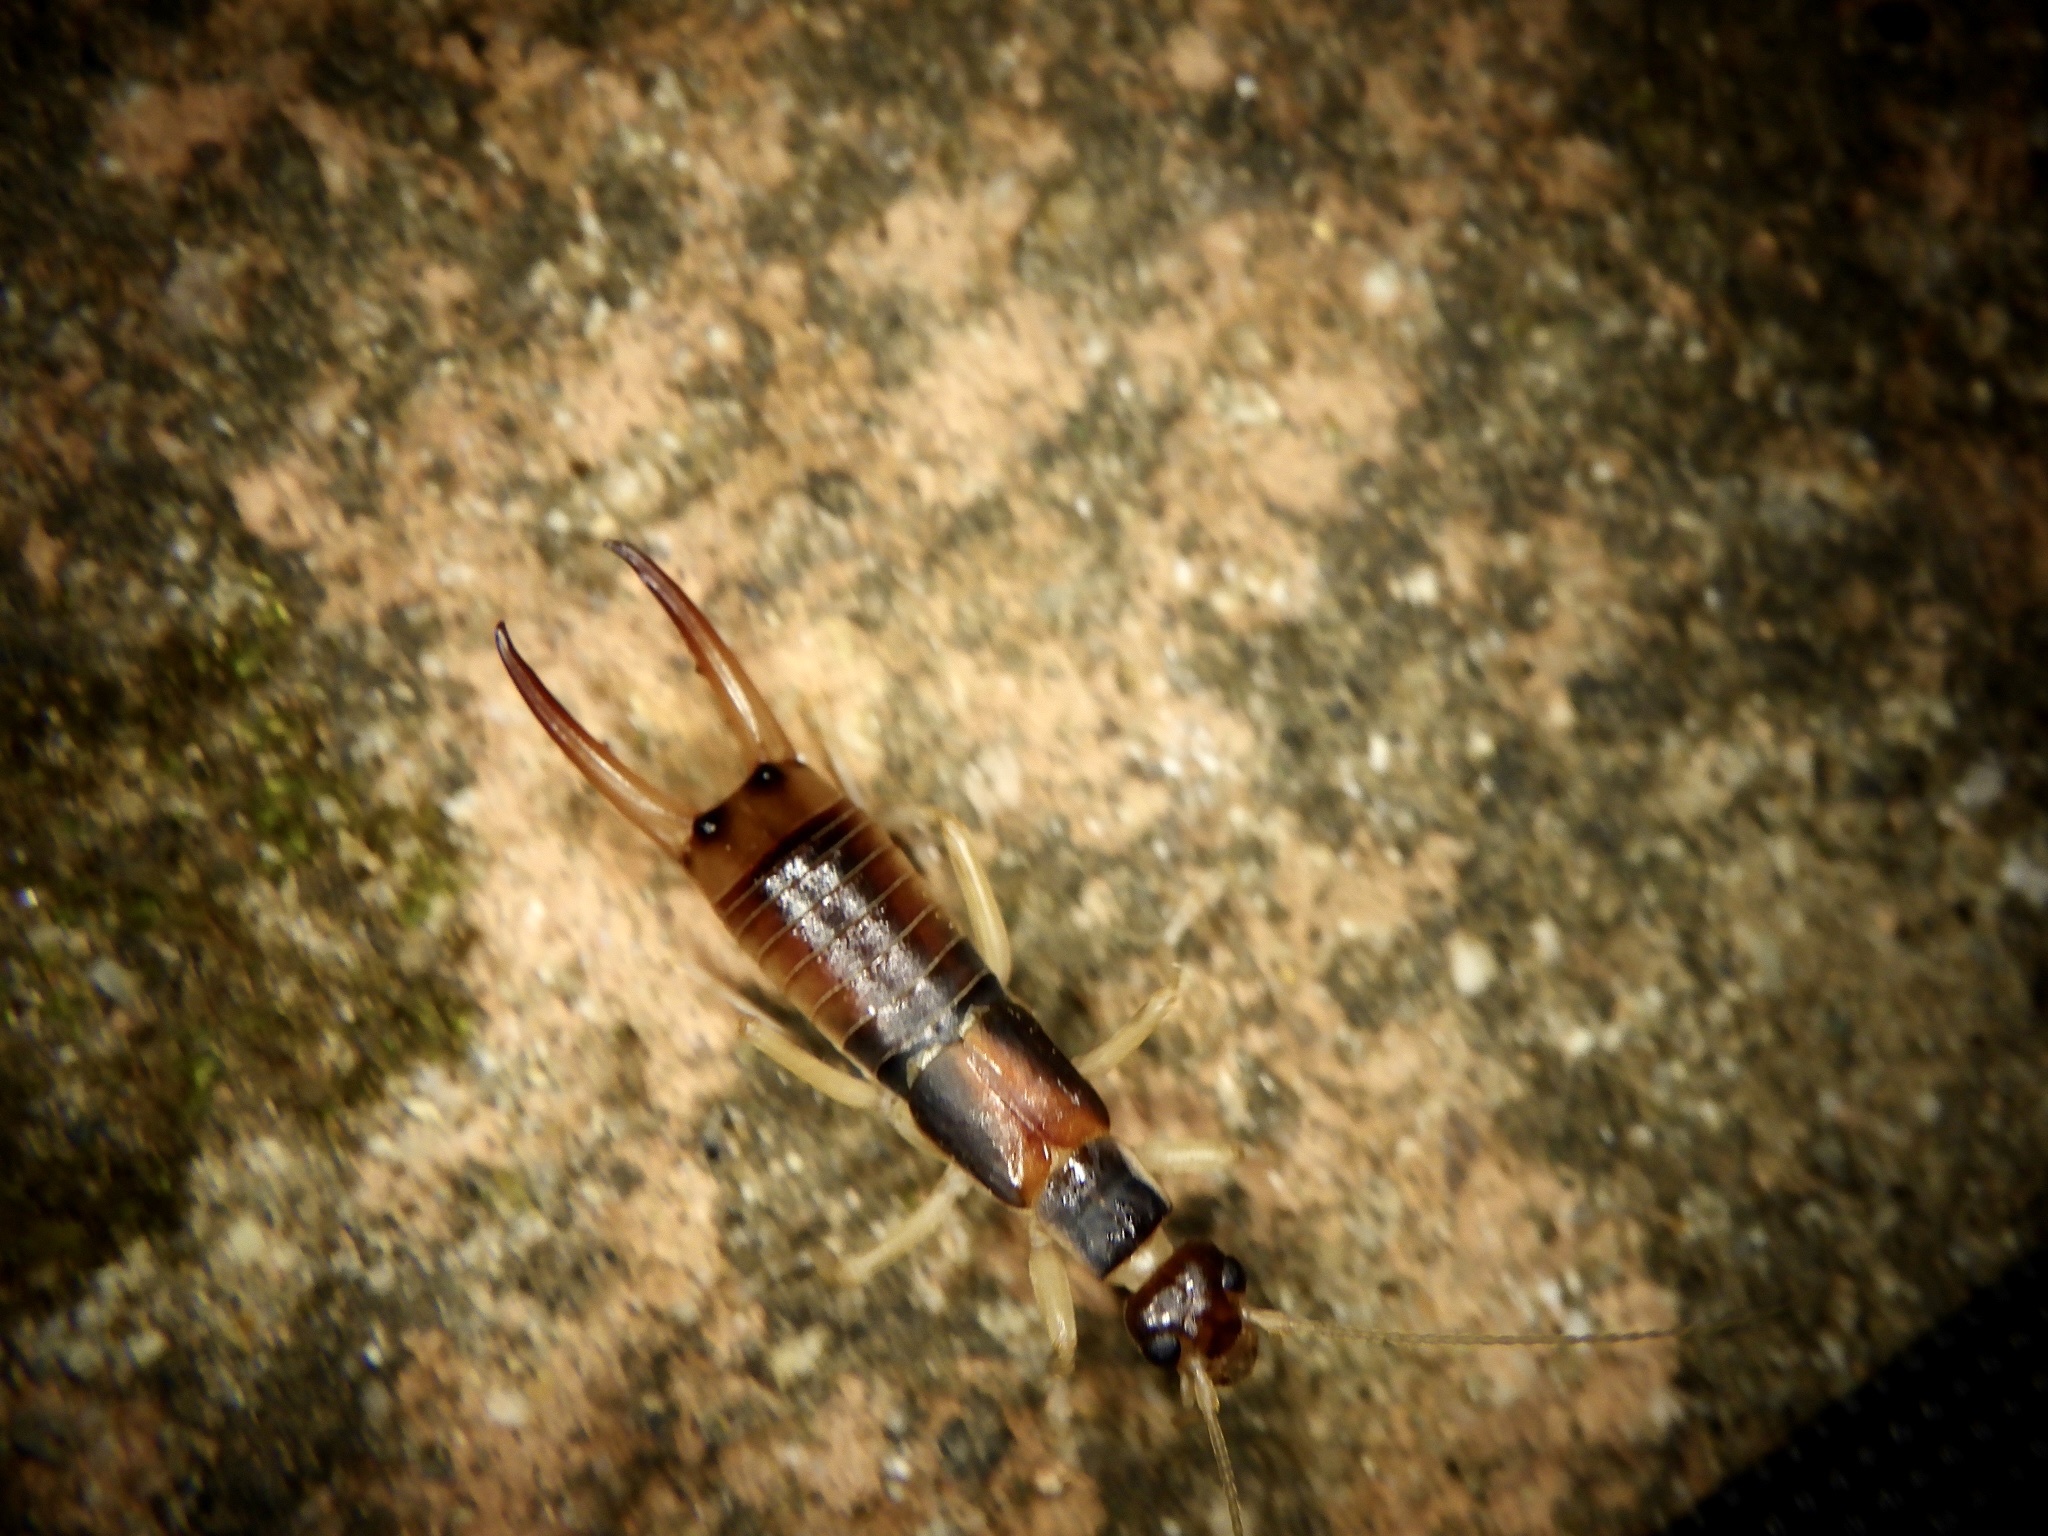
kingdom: Animalia
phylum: Arthropoda
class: Insecta
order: Dermaptera
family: Labiduridae
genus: Labidura
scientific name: Labidura riparia
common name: Striped earwig
